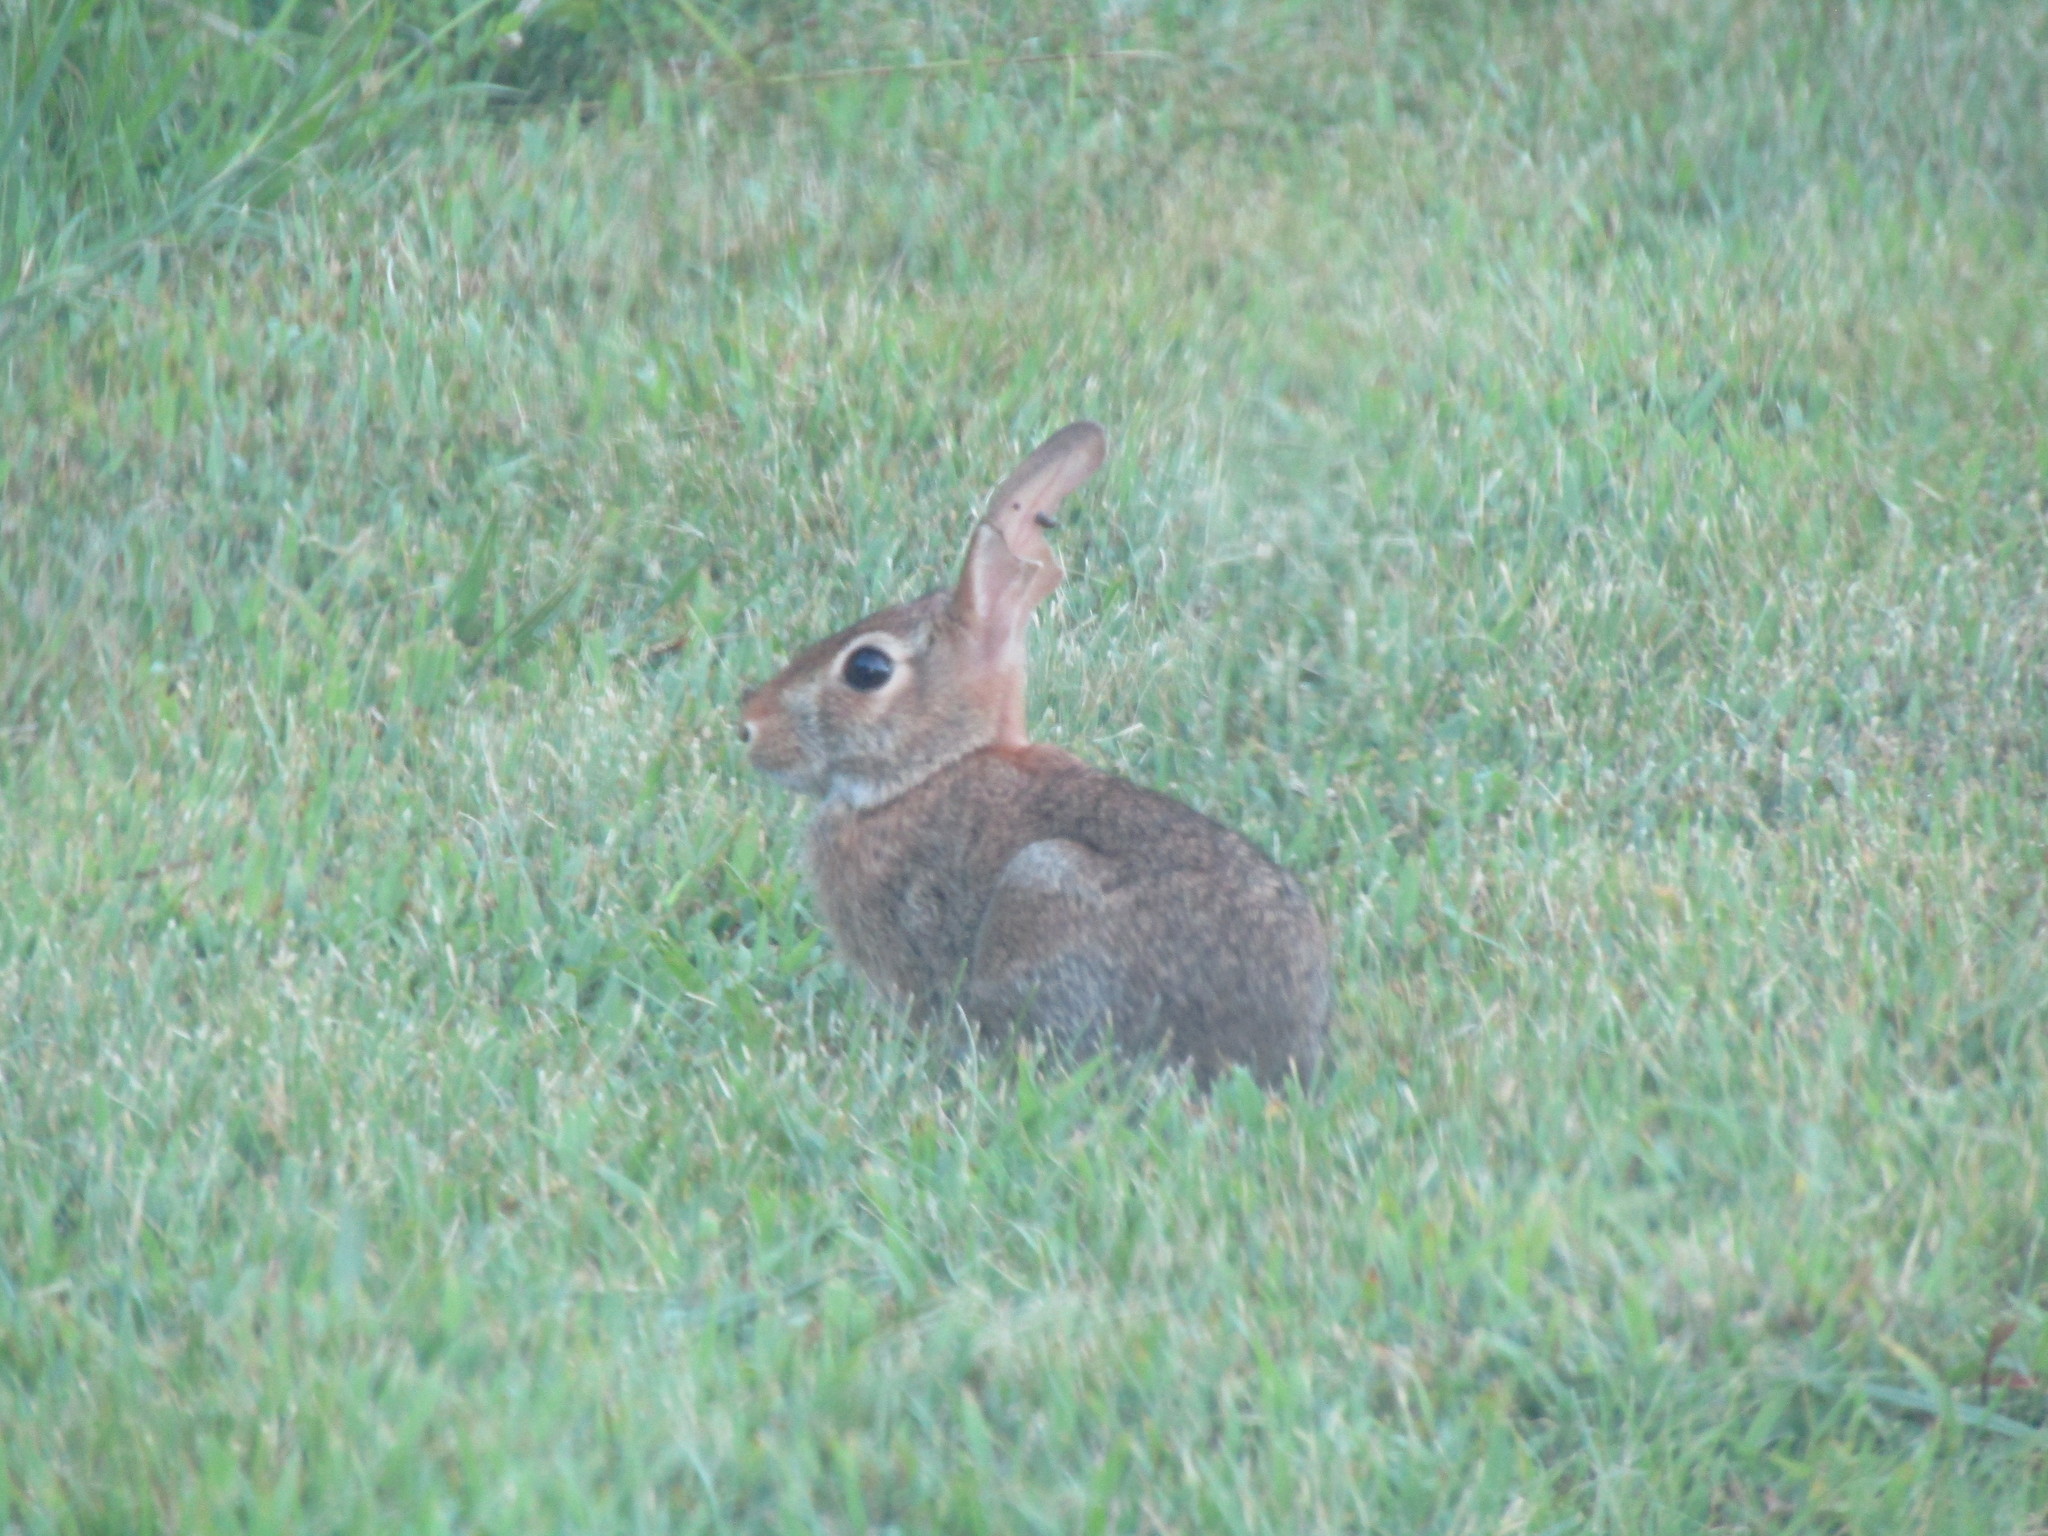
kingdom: Animalia
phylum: Chordata
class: Mammalia
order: Lagomorpha
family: Leporidae
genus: Sylvilagus
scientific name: Sylvilagus floridanus
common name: Eastern cottontail
